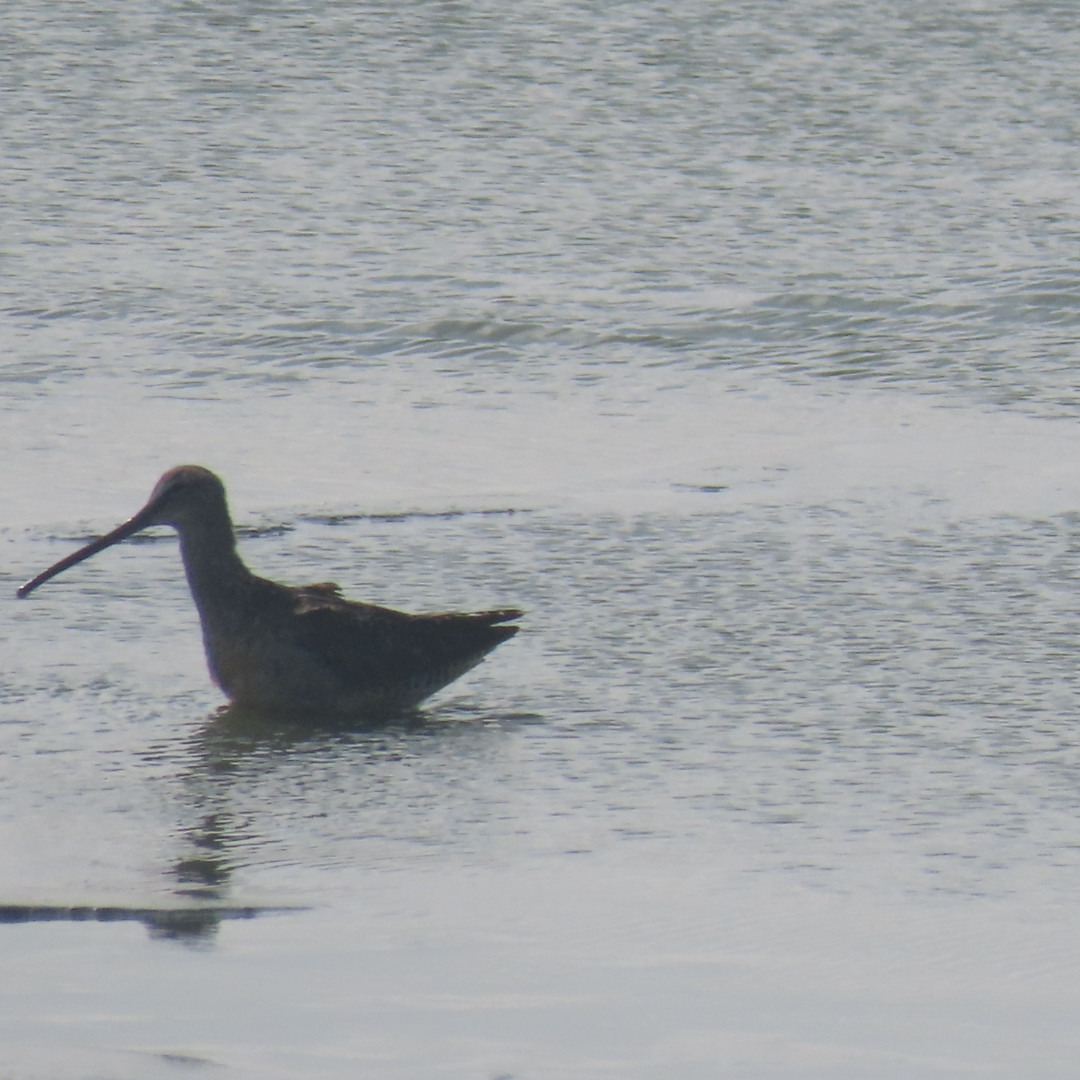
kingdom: Animalia
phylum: Chordata
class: Aves
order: Charadriiformes
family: Scolopacidae
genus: Limnodromus
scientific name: Limnodromus scolopaceus
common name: Long-billed dowitcher
